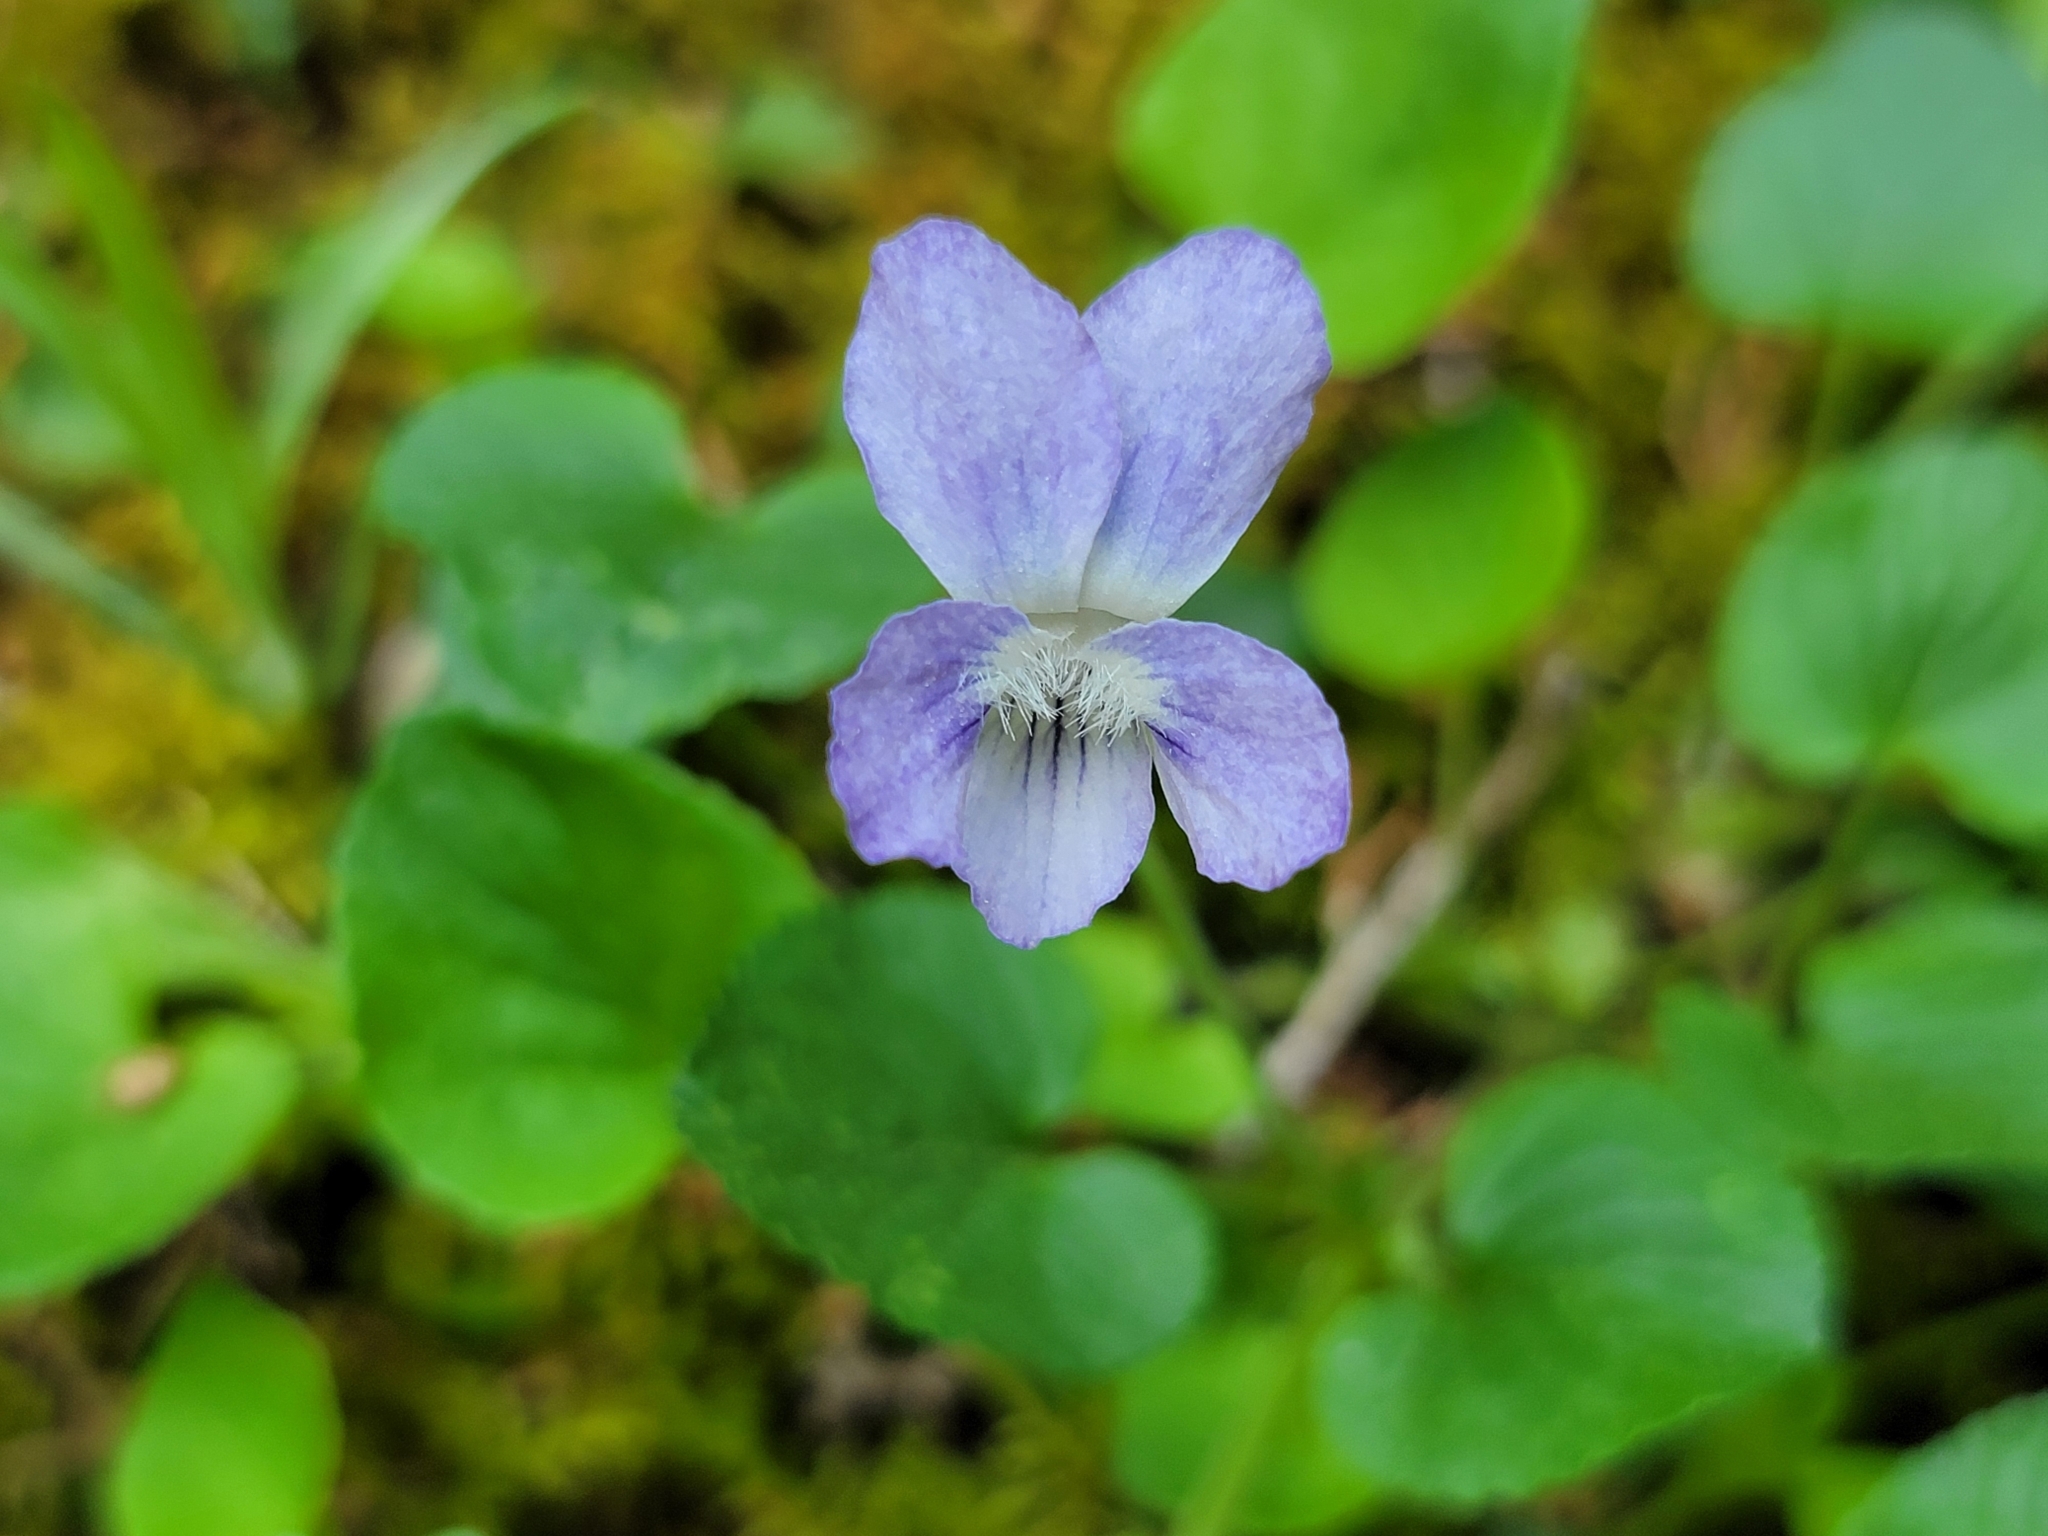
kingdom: Plantae
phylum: Tracheophyta
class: Magnoliopsida
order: Malpighiales
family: Violaceae
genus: Viola
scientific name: Viola walteri
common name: Prostrate southern violet
